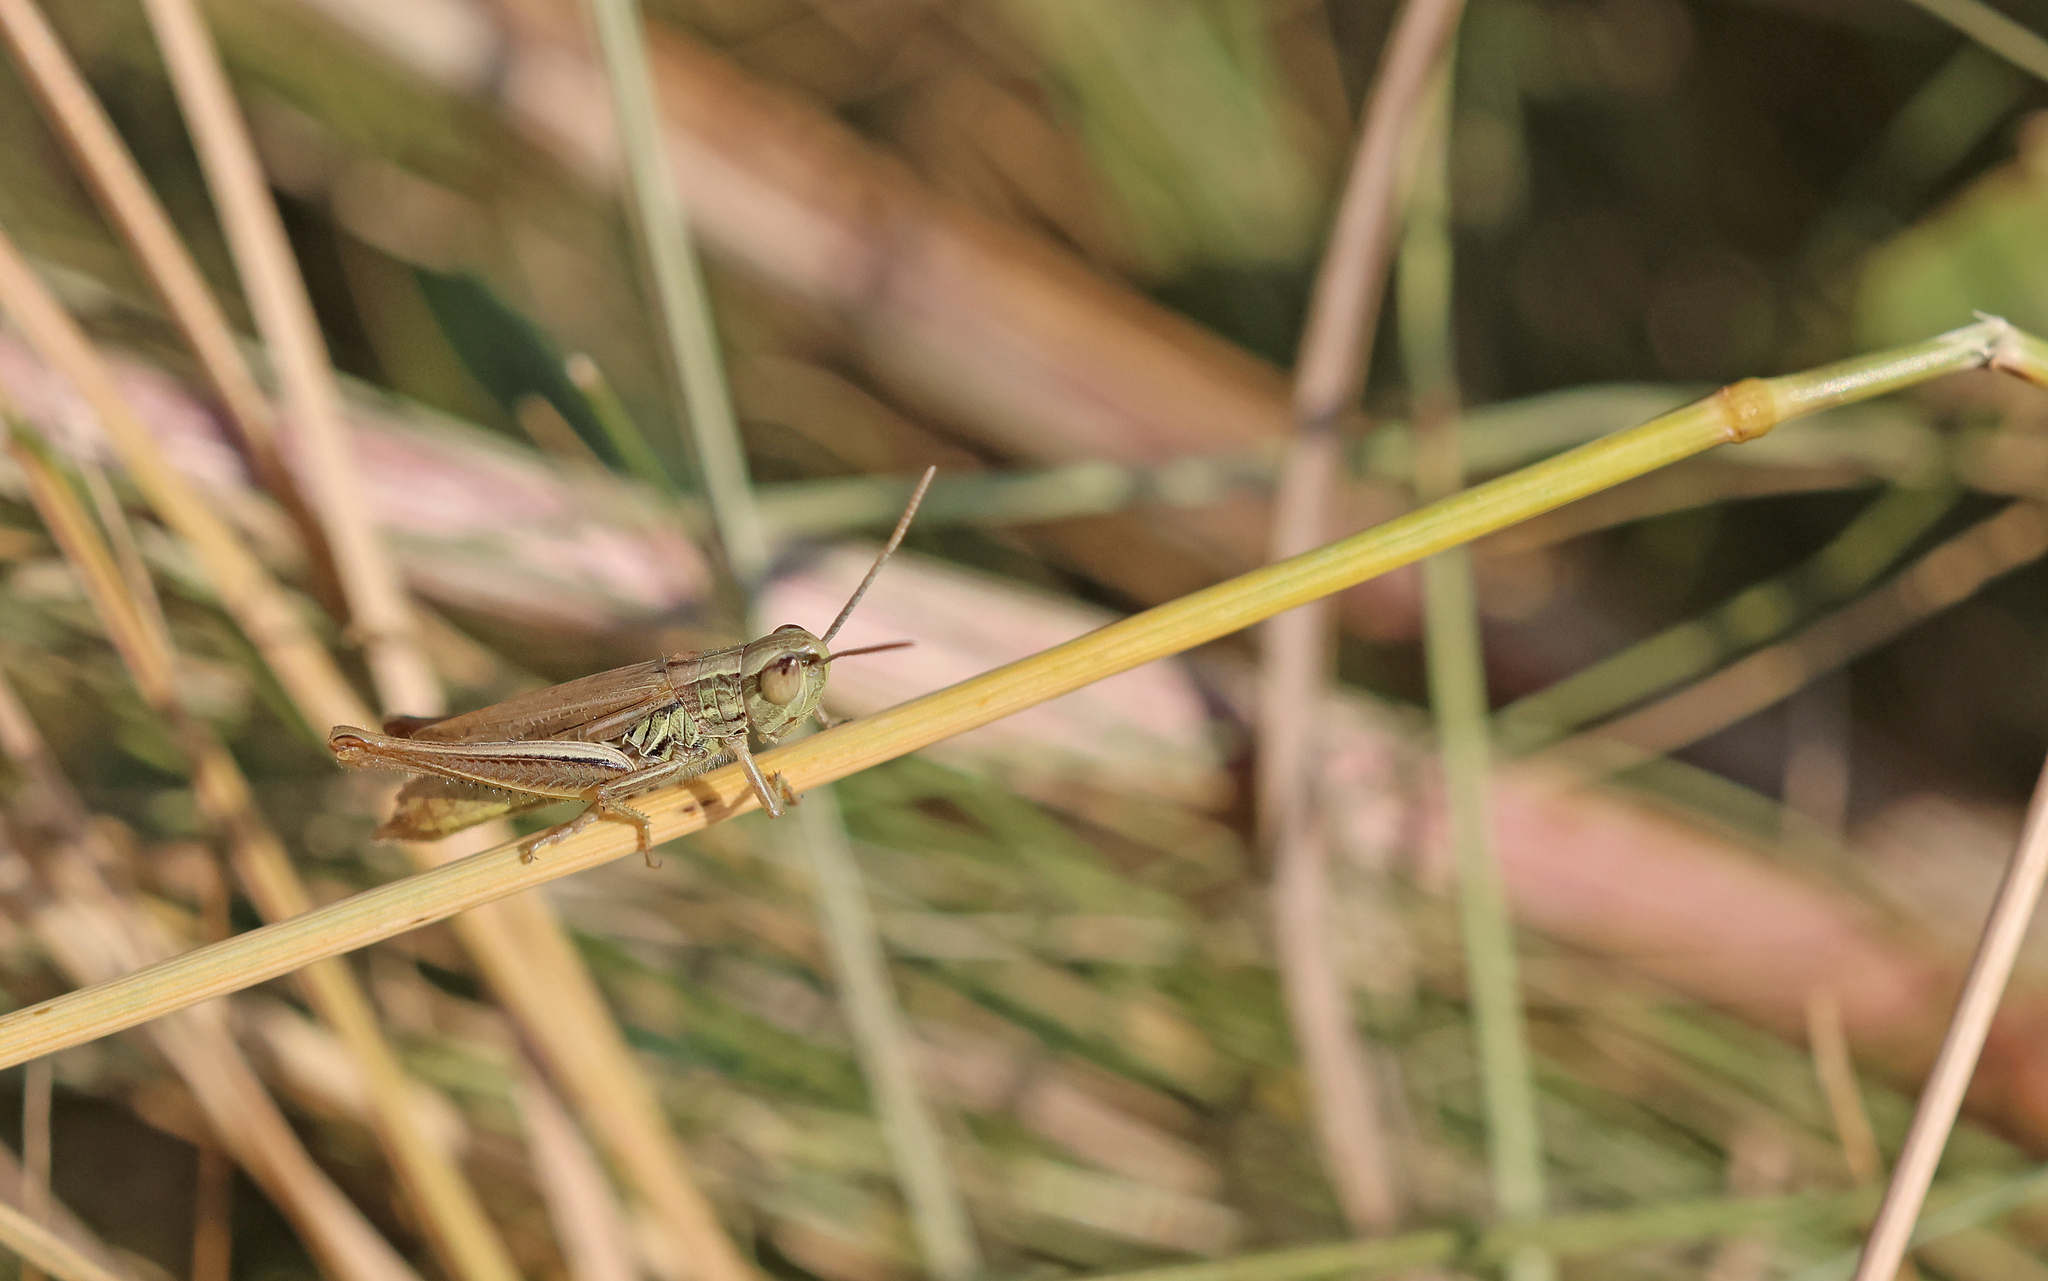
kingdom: Animalia
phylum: Arthropoda
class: Insecta
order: Orthoptera
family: Acrididae
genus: Euchorthippus
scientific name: Euchorthippus declivus
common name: Common straw grasshopper
